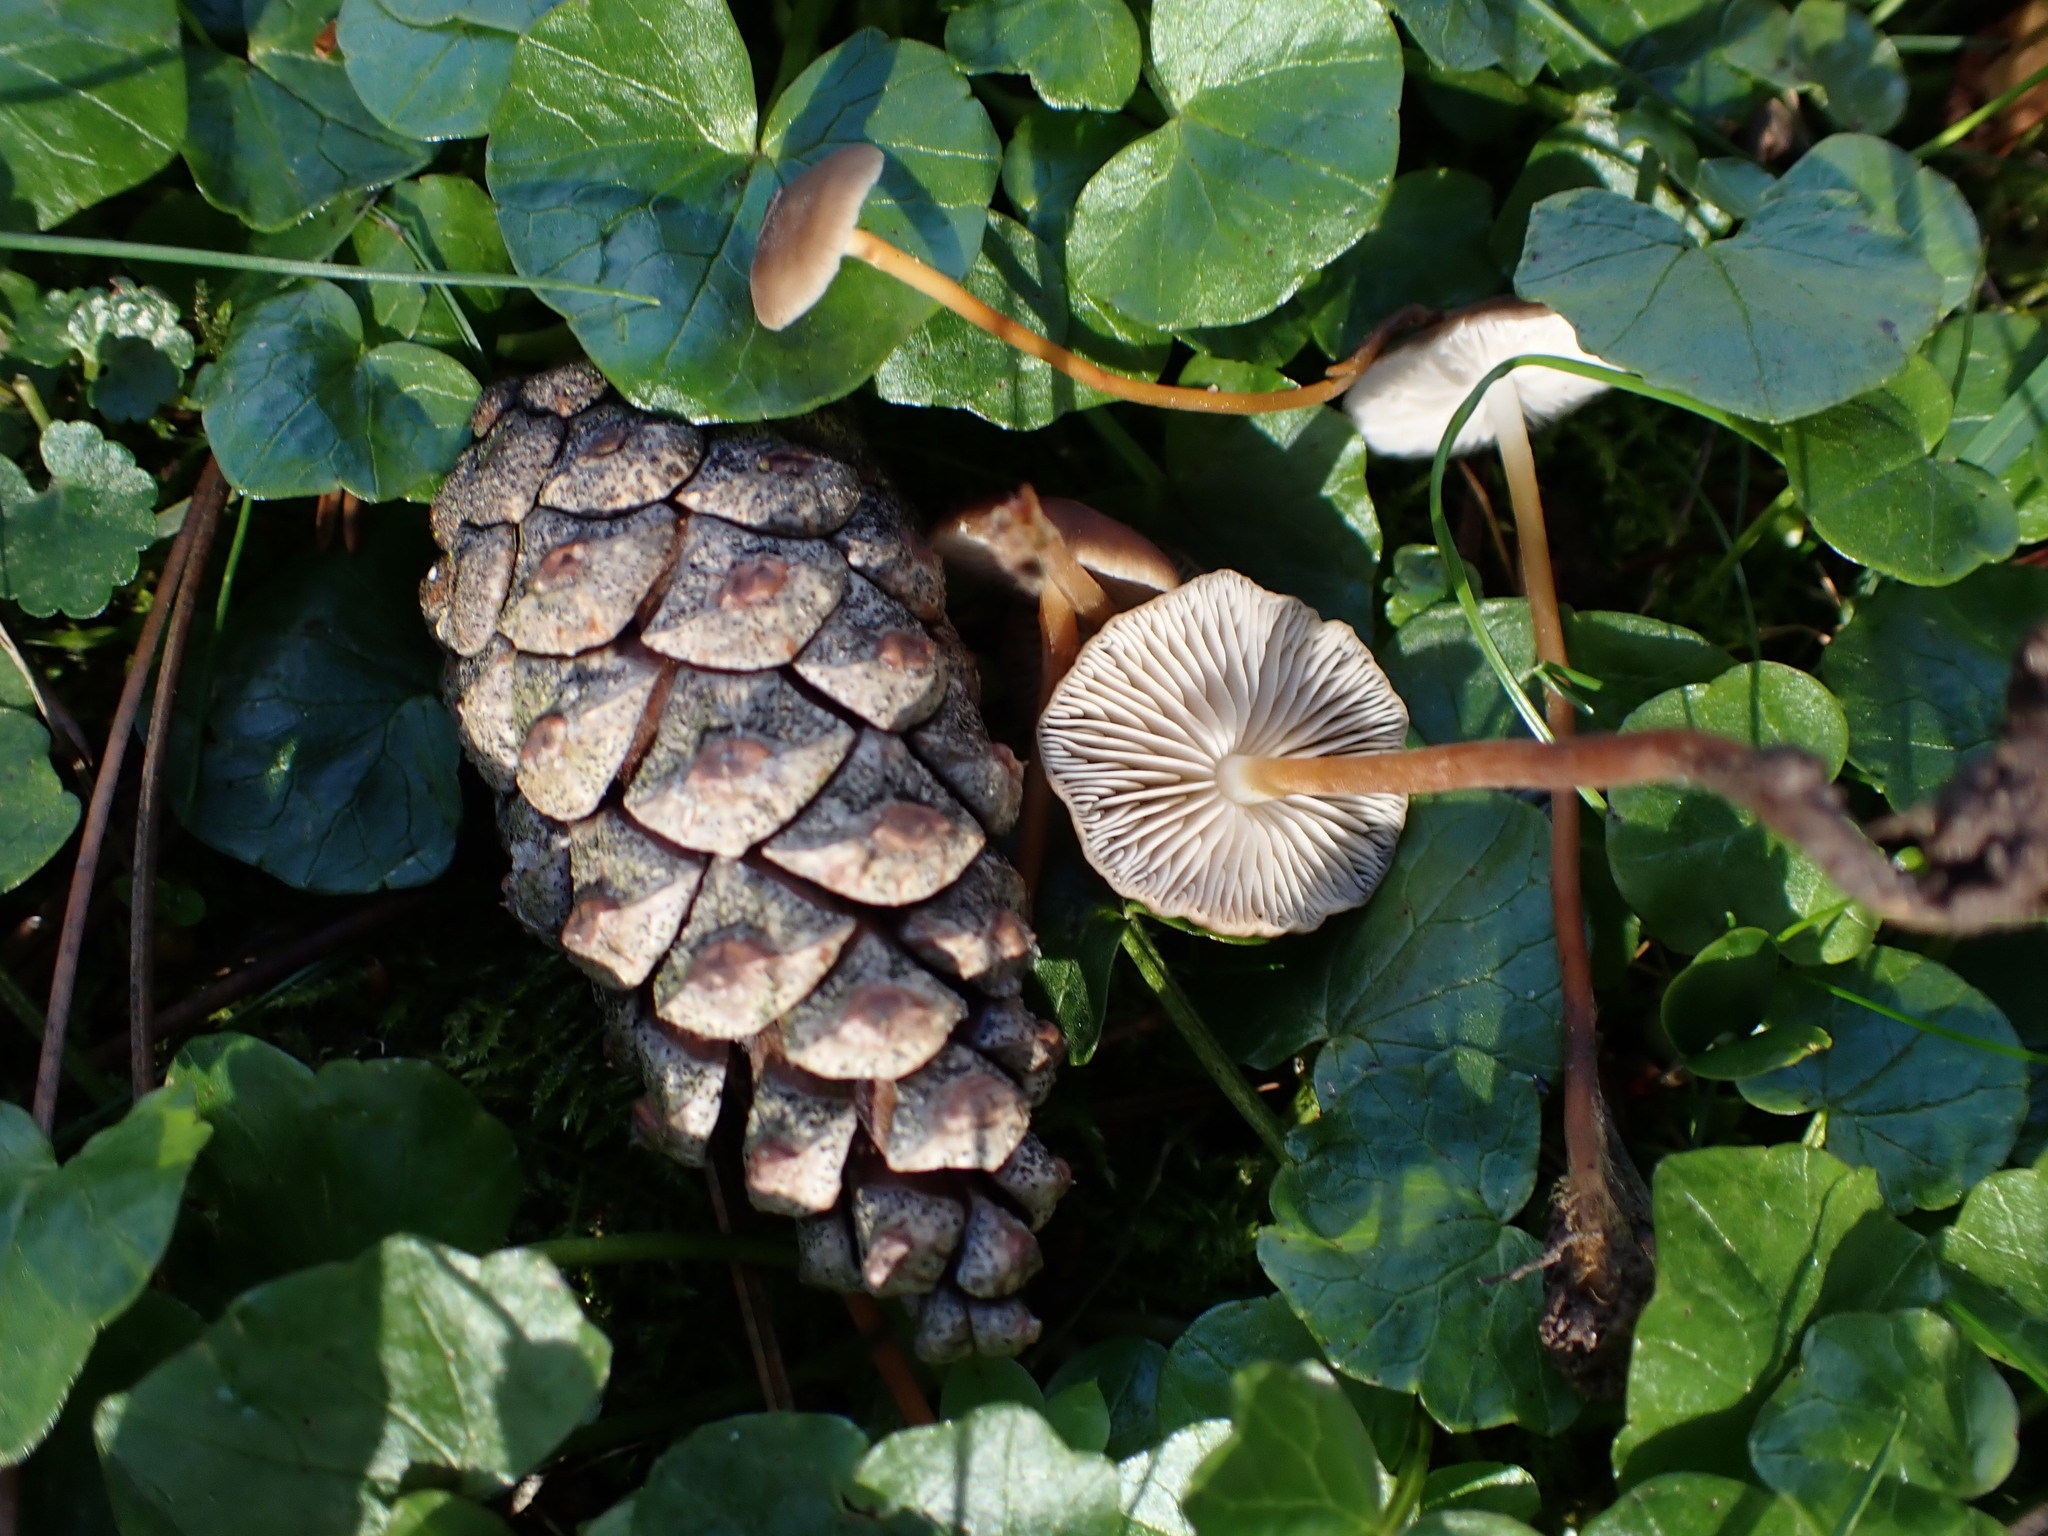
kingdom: Fungi
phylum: Basidiomycota
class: Agaricomycetes
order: Agaricales
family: Physalacriaceae
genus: Strobilurus
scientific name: Strobilurus tenacellus
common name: Pinecone cap
